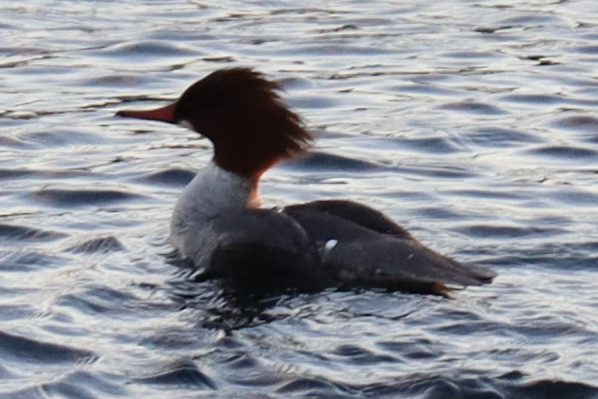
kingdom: Animalia
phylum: Chordata
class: Aves
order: Anseriformes
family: Anatidae
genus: Mergus
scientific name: Mergus merganser
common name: Common merganser
